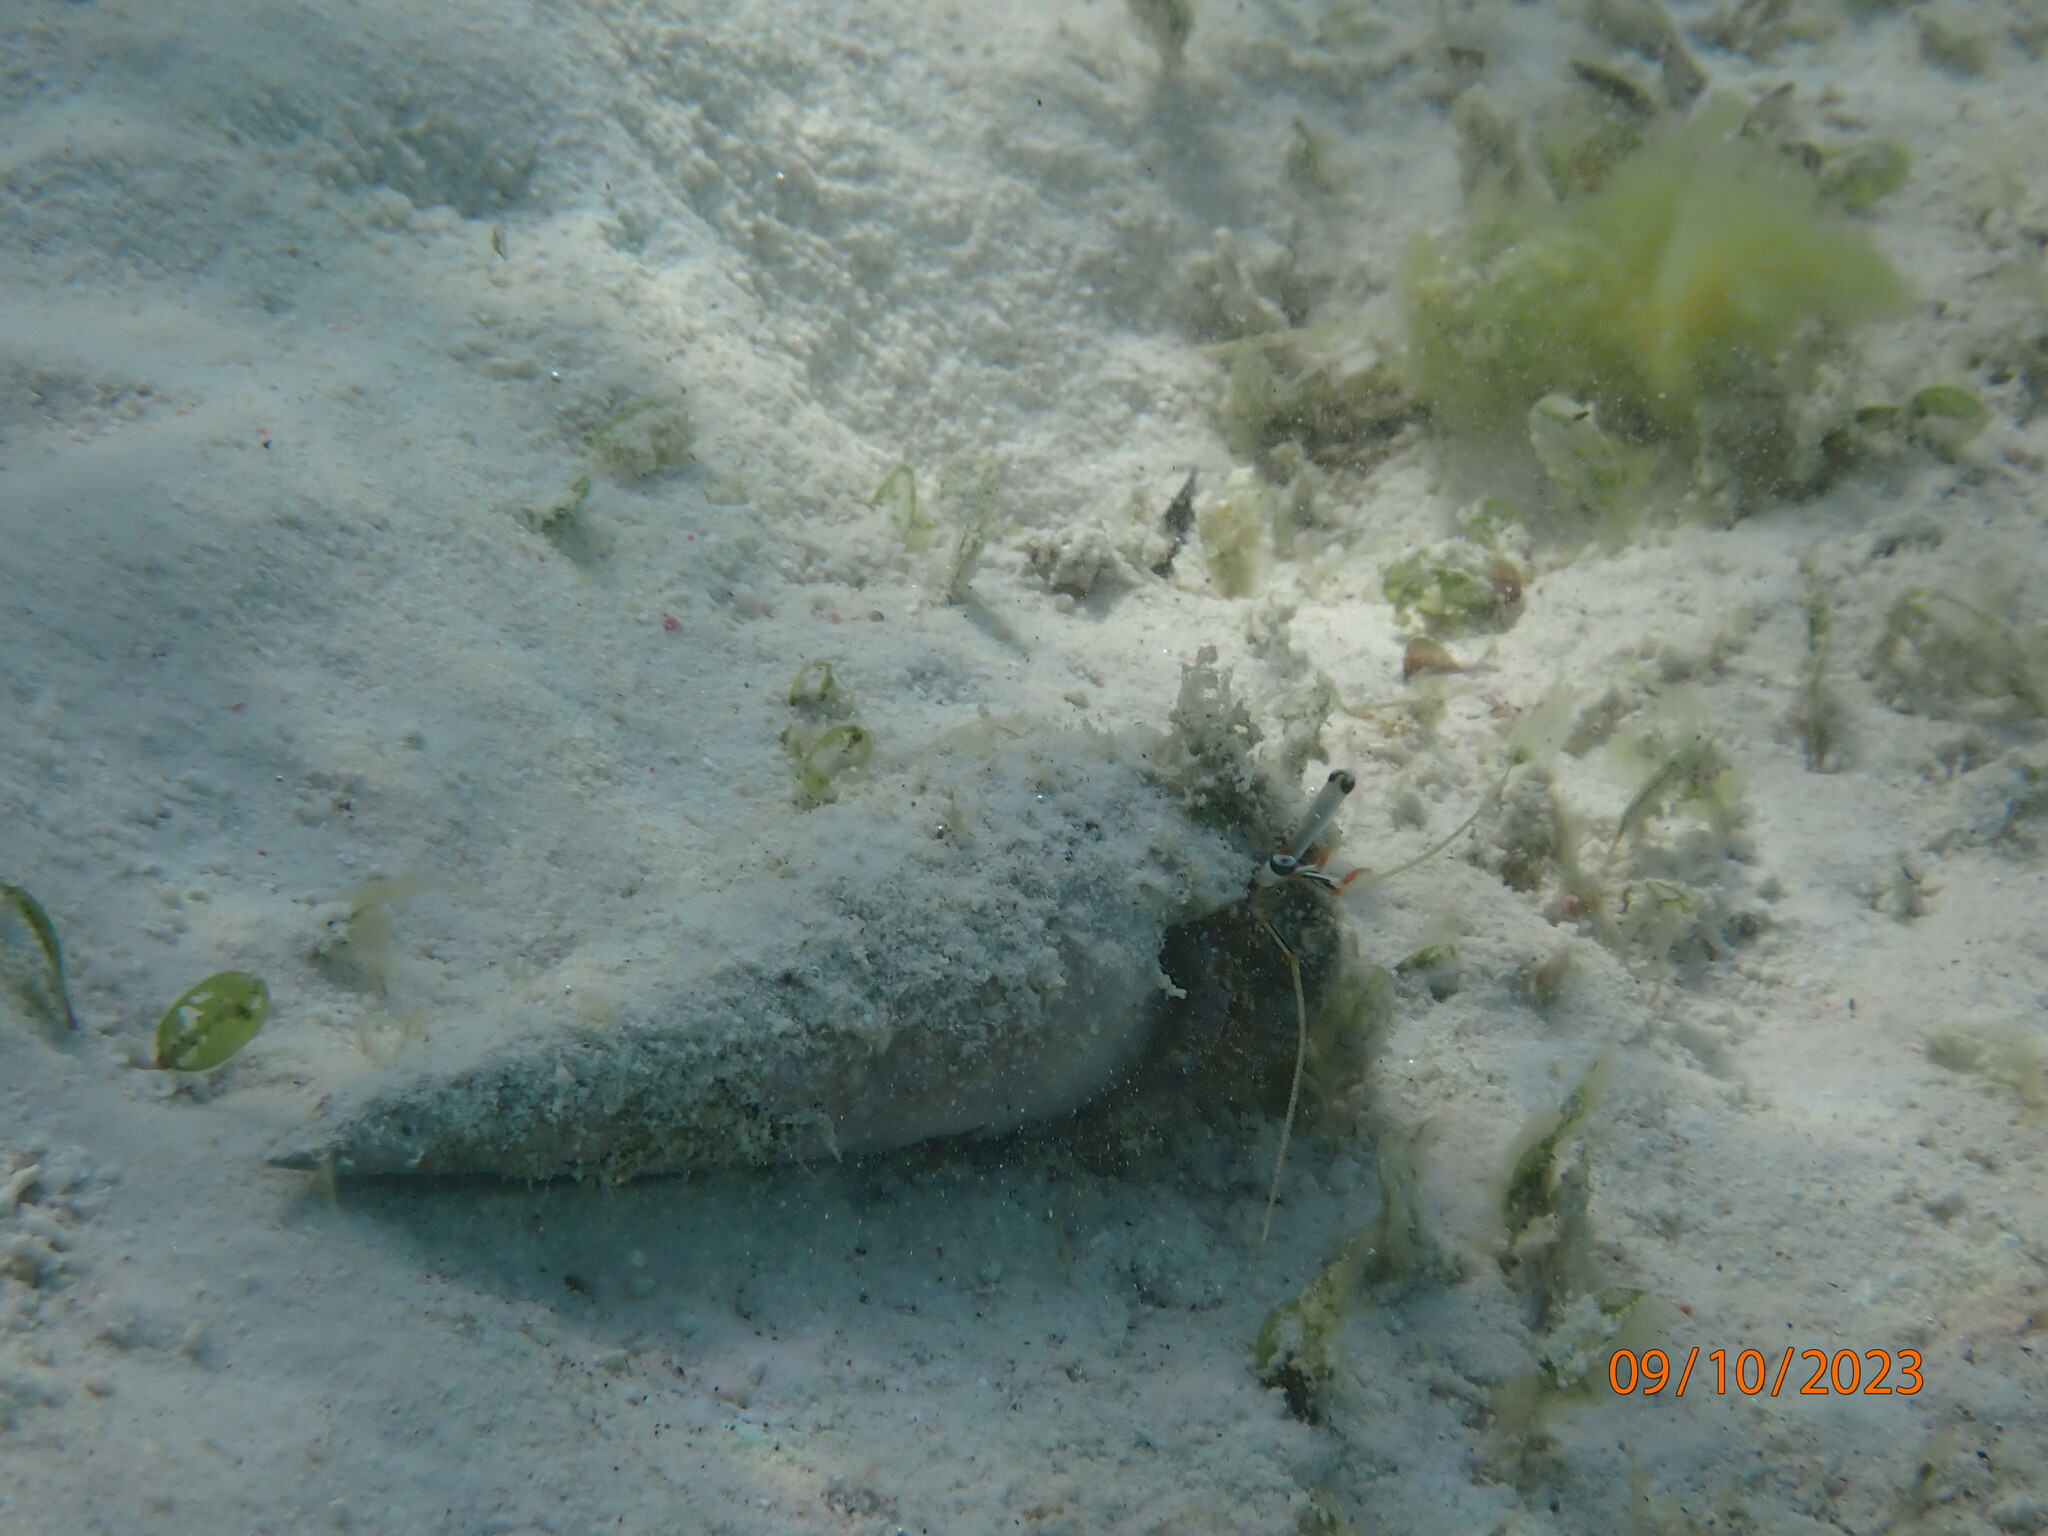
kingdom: Animalia
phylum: Arthropoda
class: Malacostraca
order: Decapoda
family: Diogenidae
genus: Dardanus
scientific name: Dardanus scutellatus
